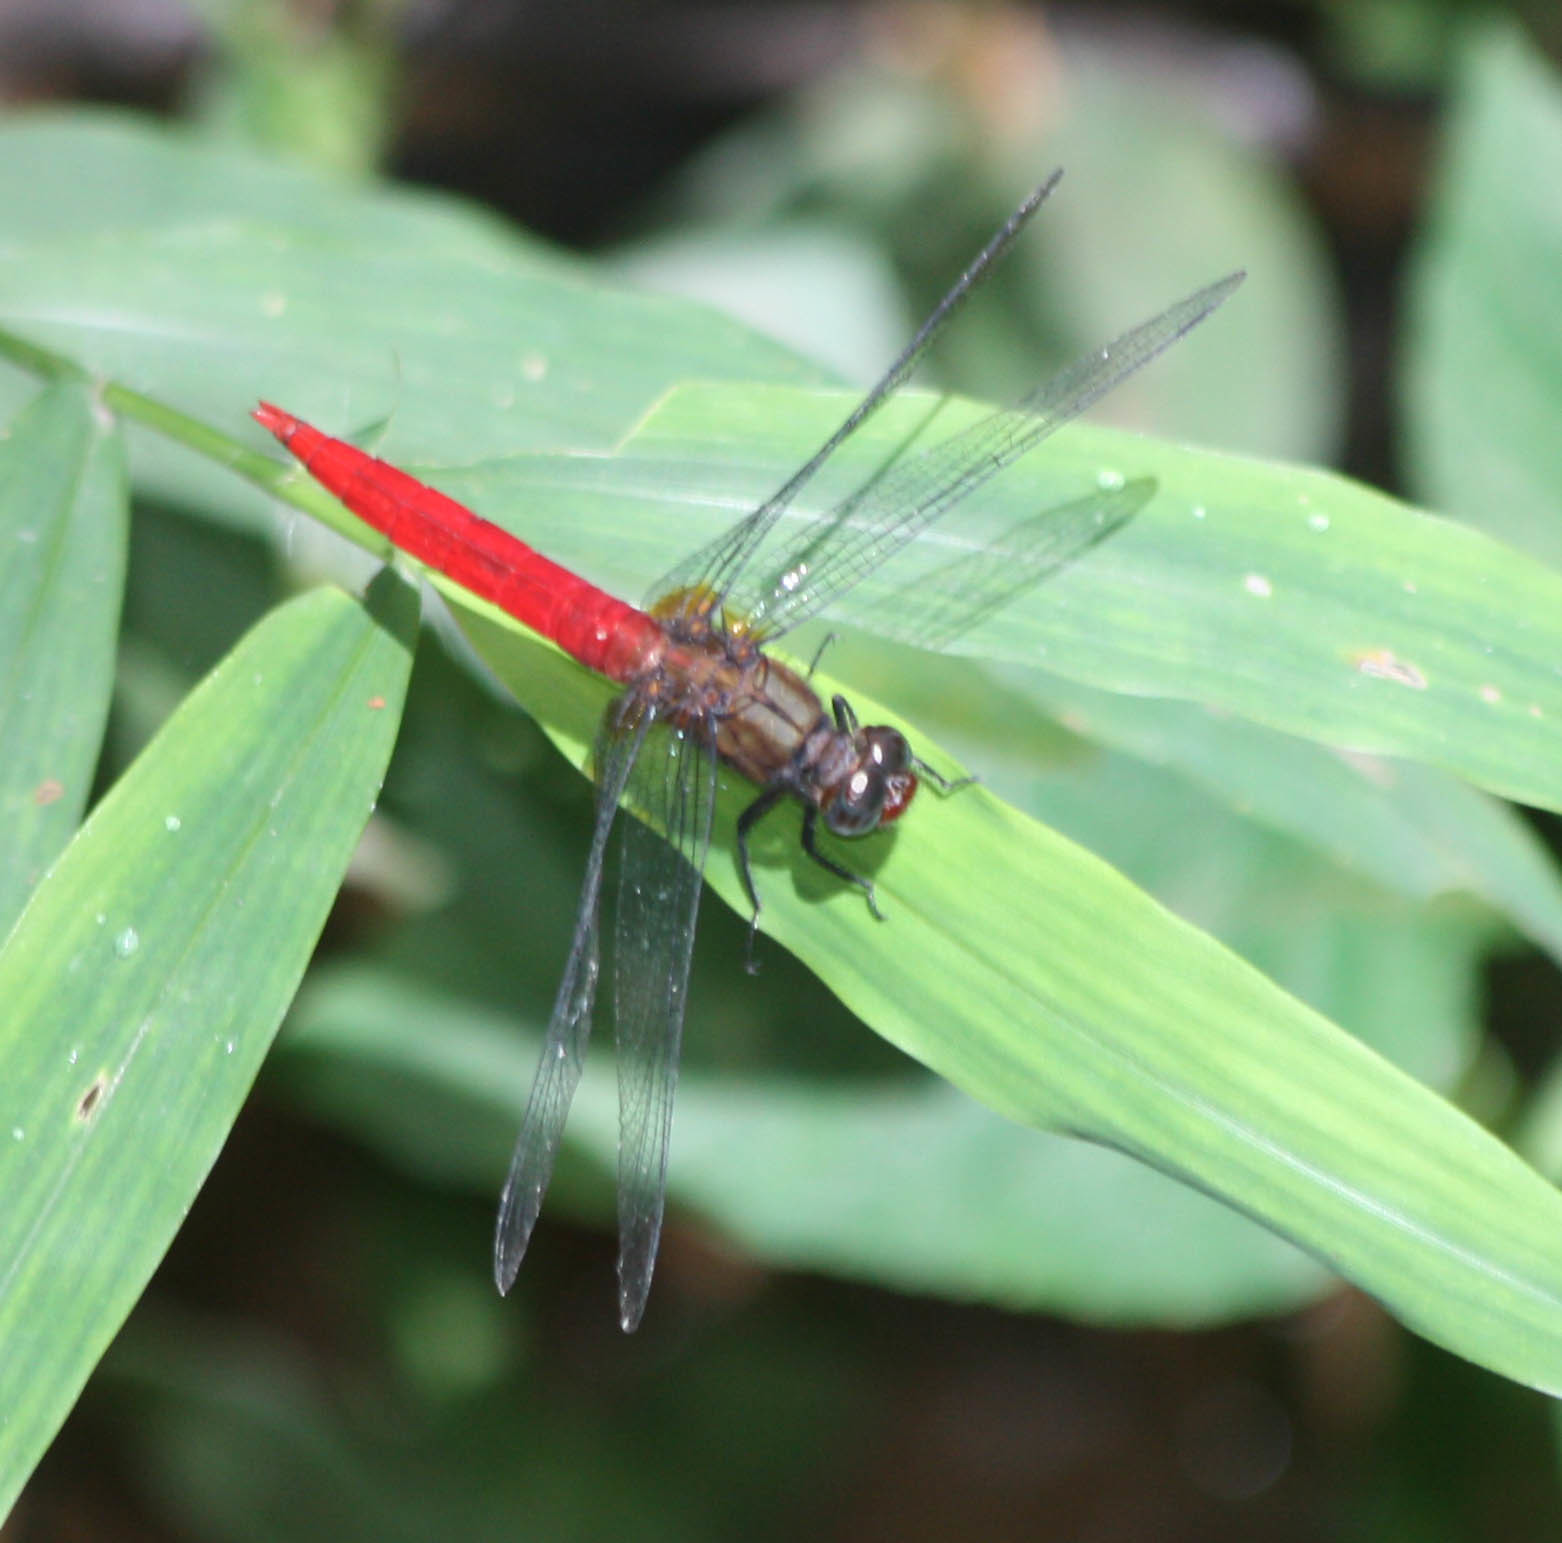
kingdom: Animalia
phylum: Arthropoda
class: Insecta
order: Odonata
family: Libellulidae
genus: Orthetrum
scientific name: Orthetrum chrysis
